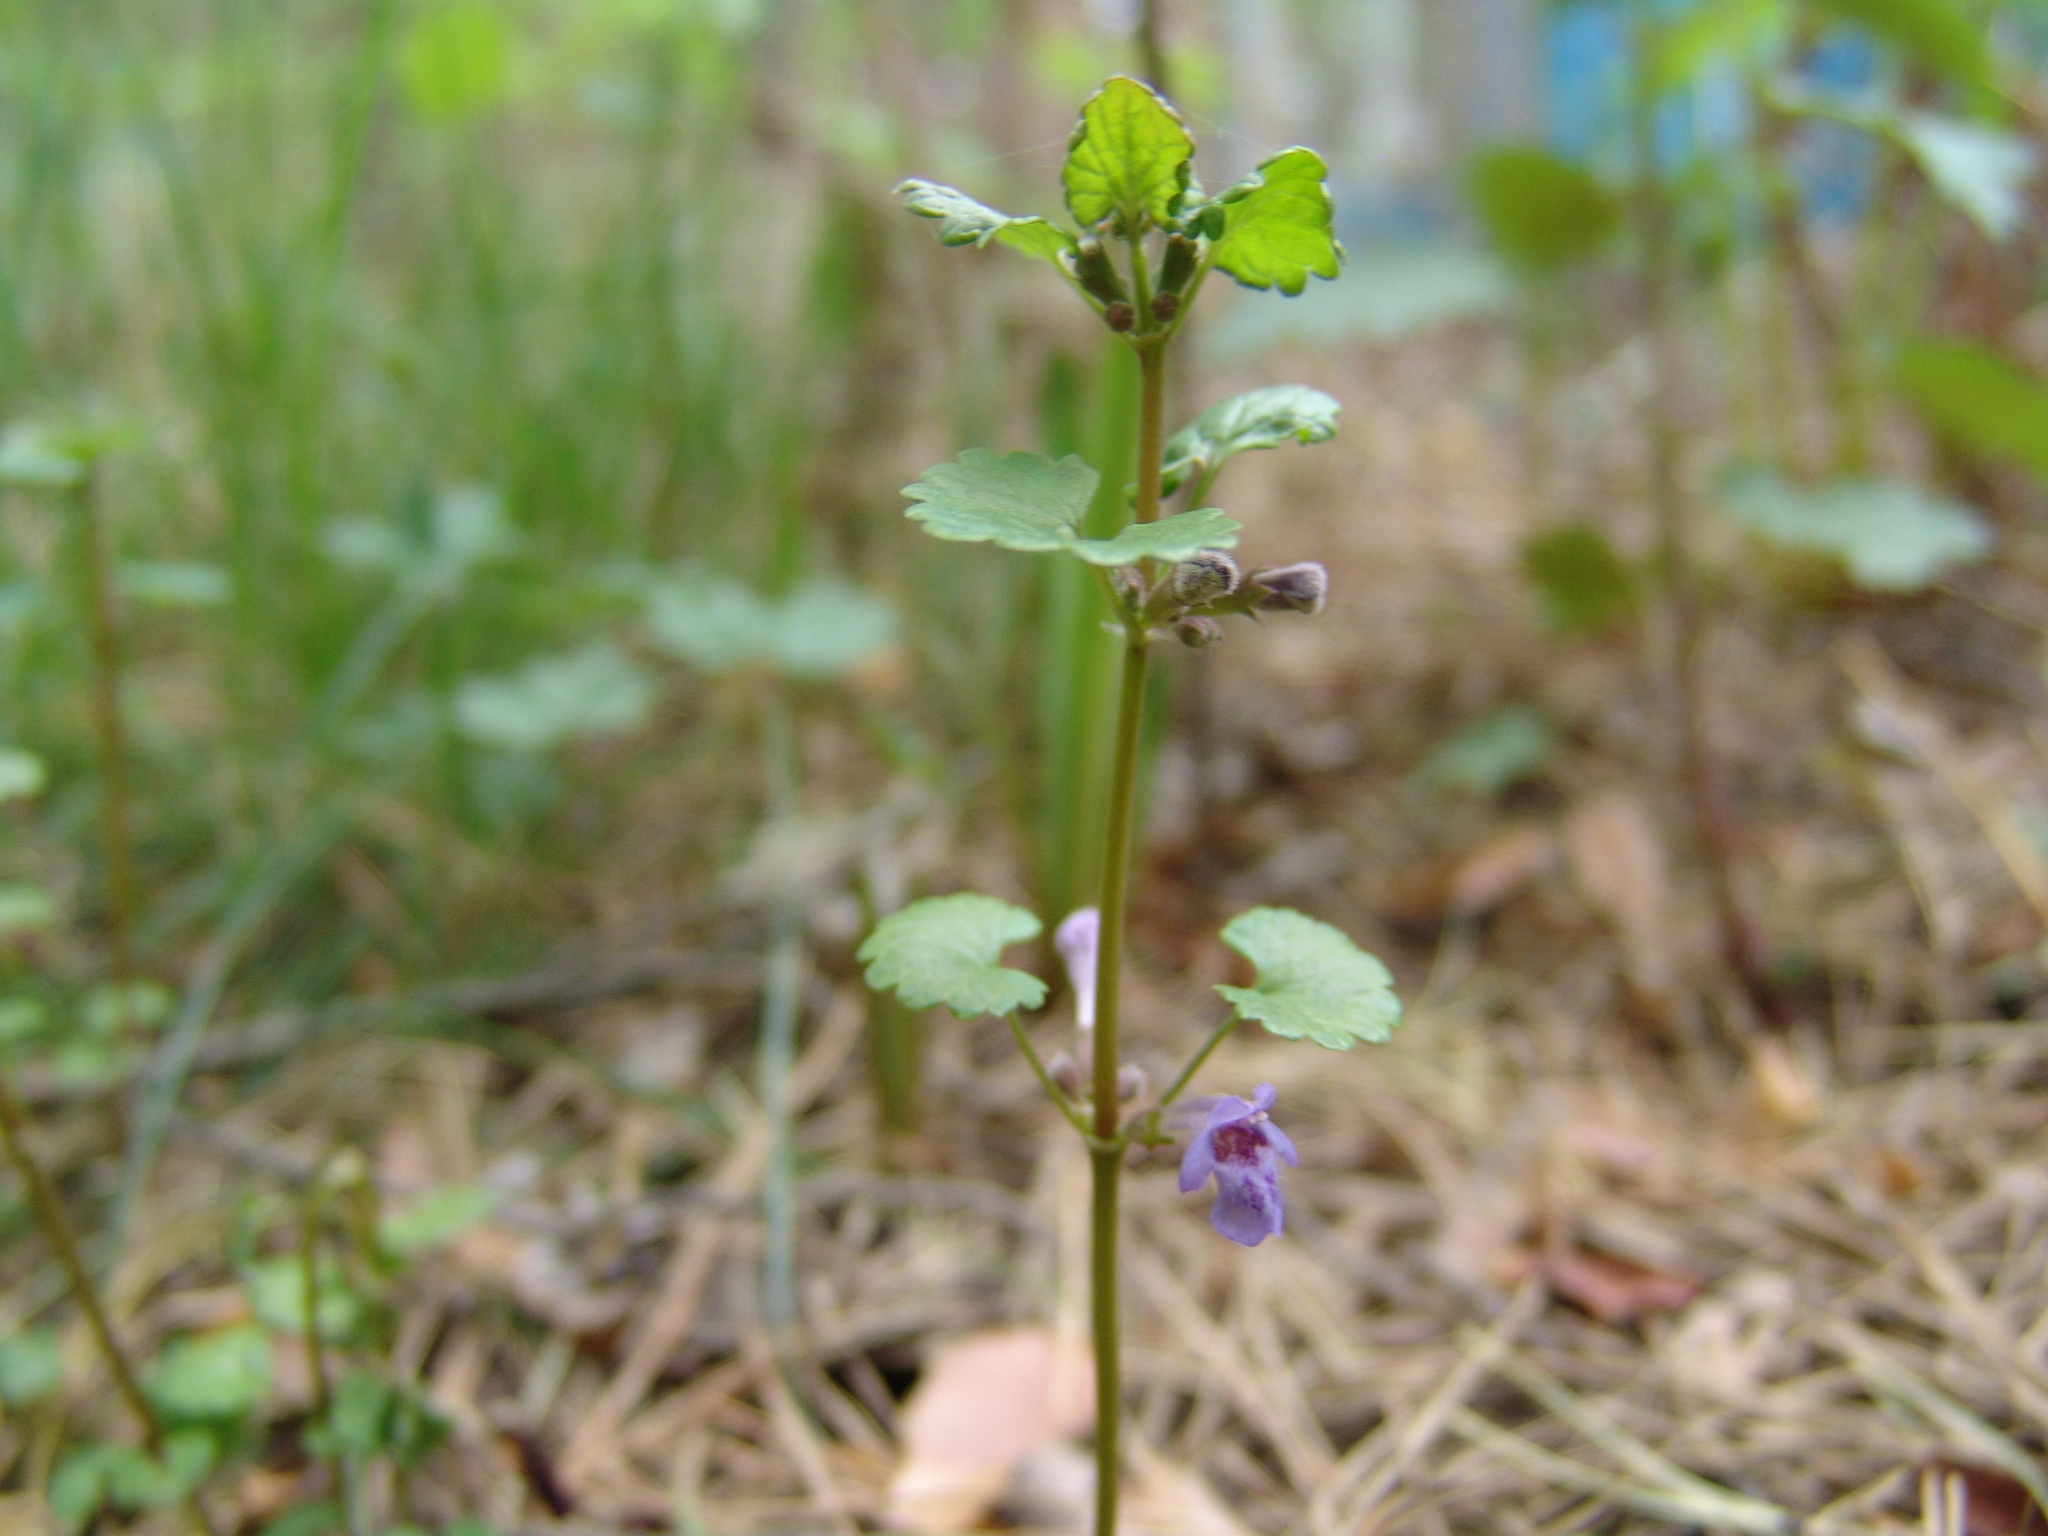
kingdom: Plantae
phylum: Tracheophyta
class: Magnoliopsida
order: Lamiales
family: Lamiaceae
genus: Glechoma
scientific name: Glechoma hederacea
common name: Ground ivy
